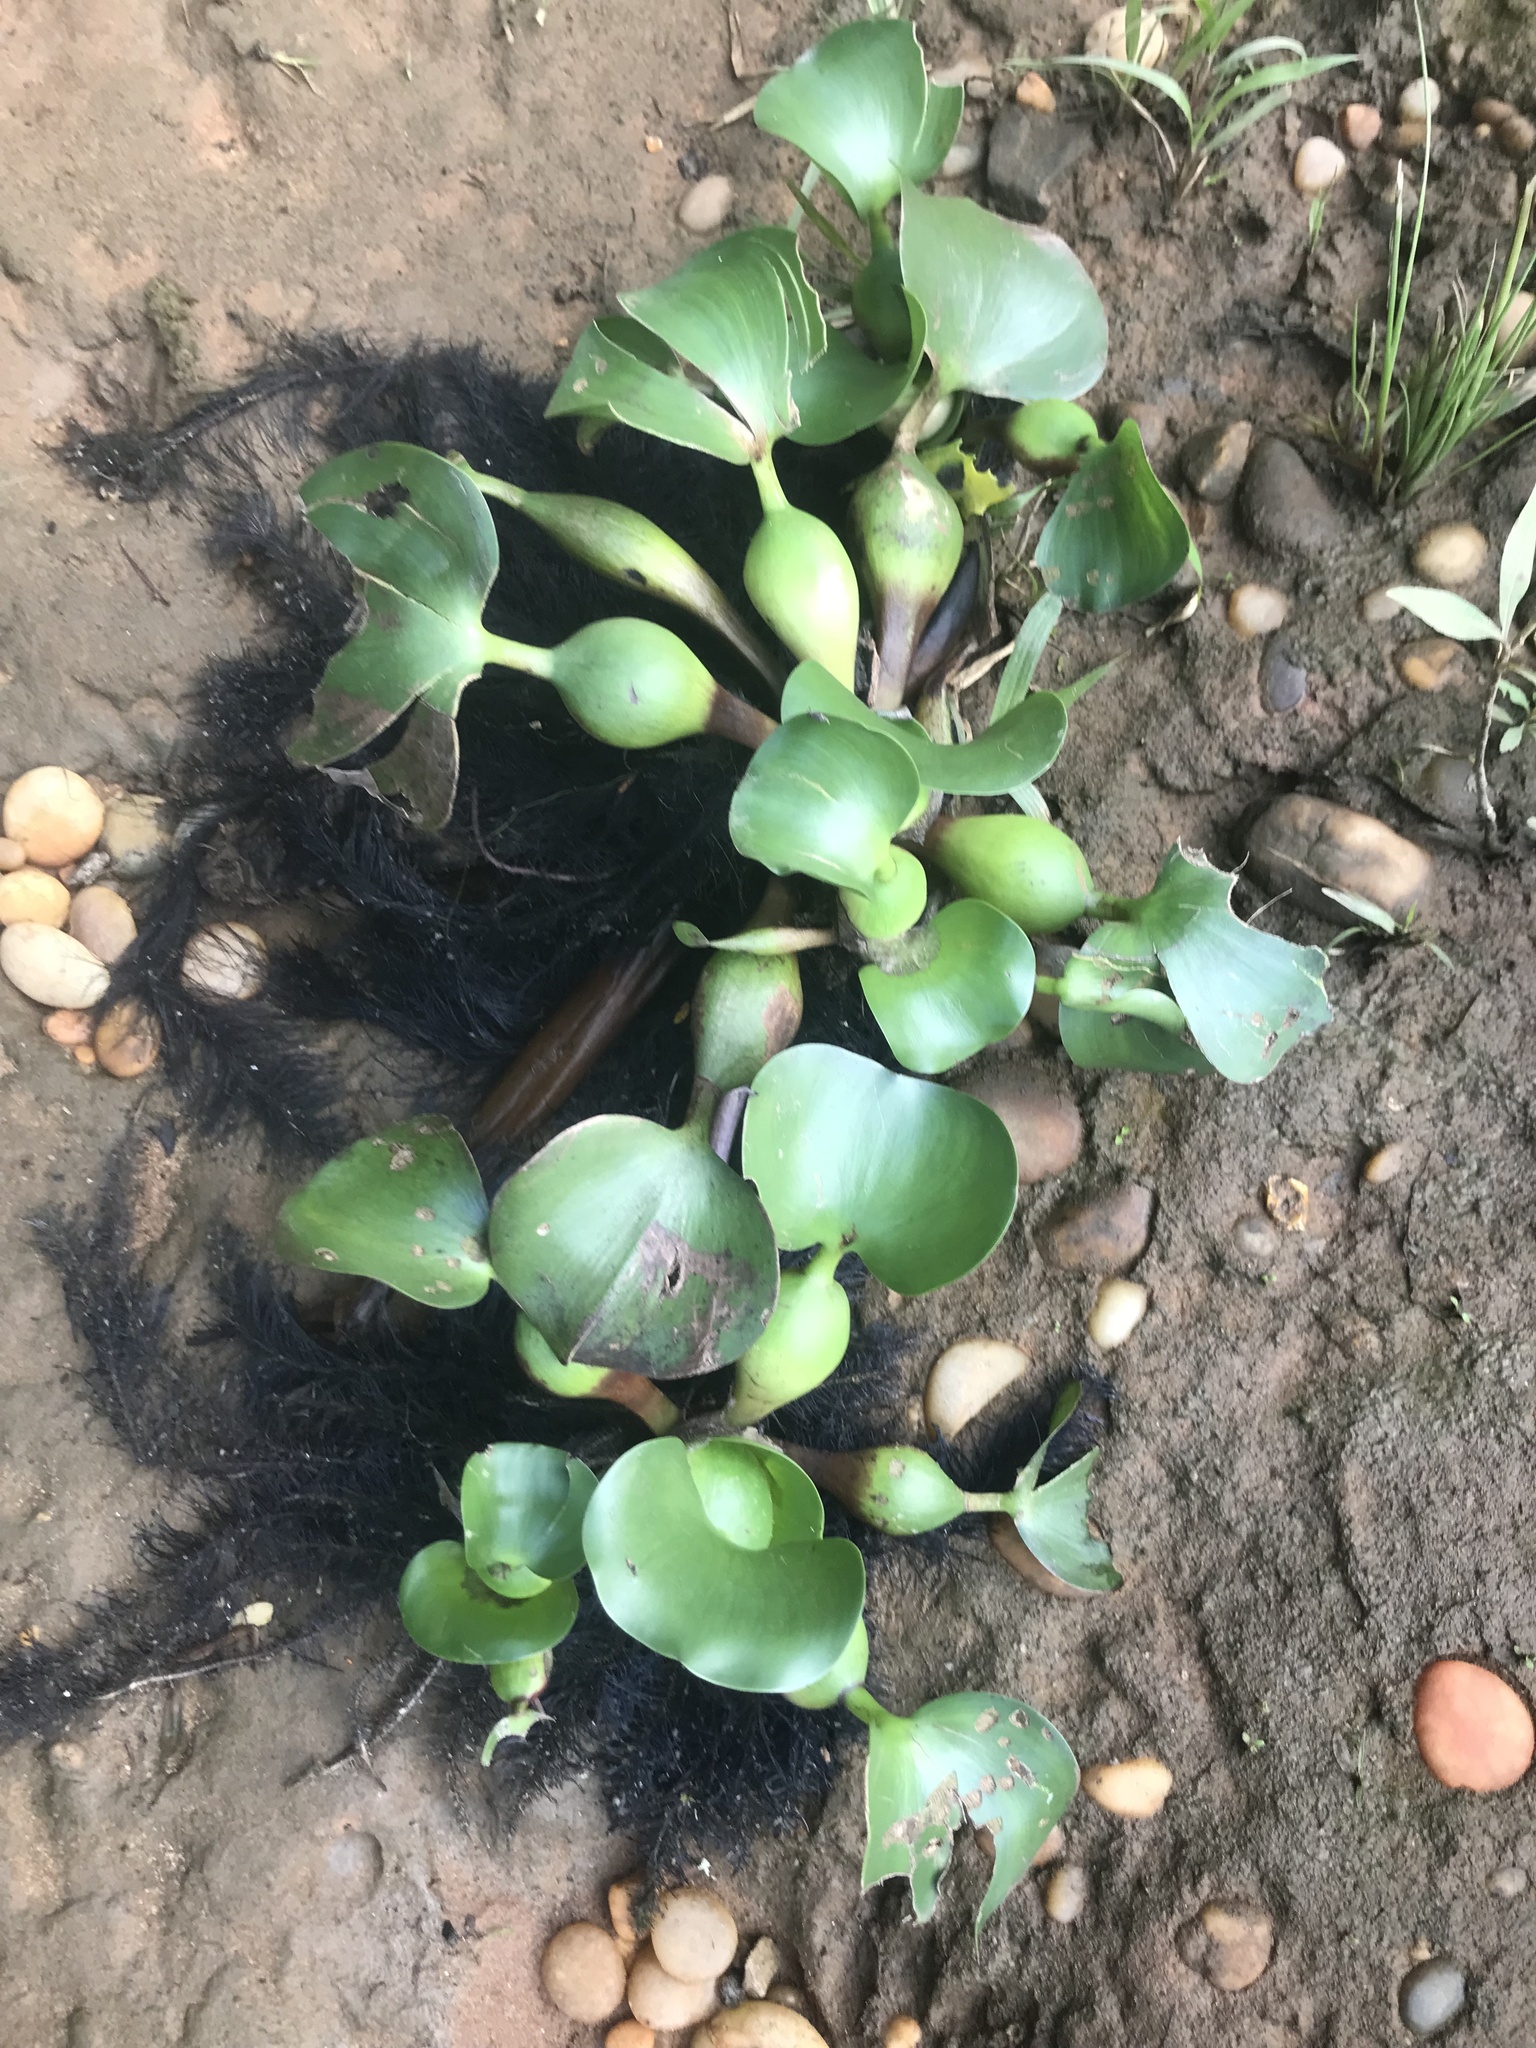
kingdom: Plantae
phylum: Tracheophyta
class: Liliopsida
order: Commelinales
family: Pontederiaceae
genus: Pontederia
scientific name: Pontederia crassipes
